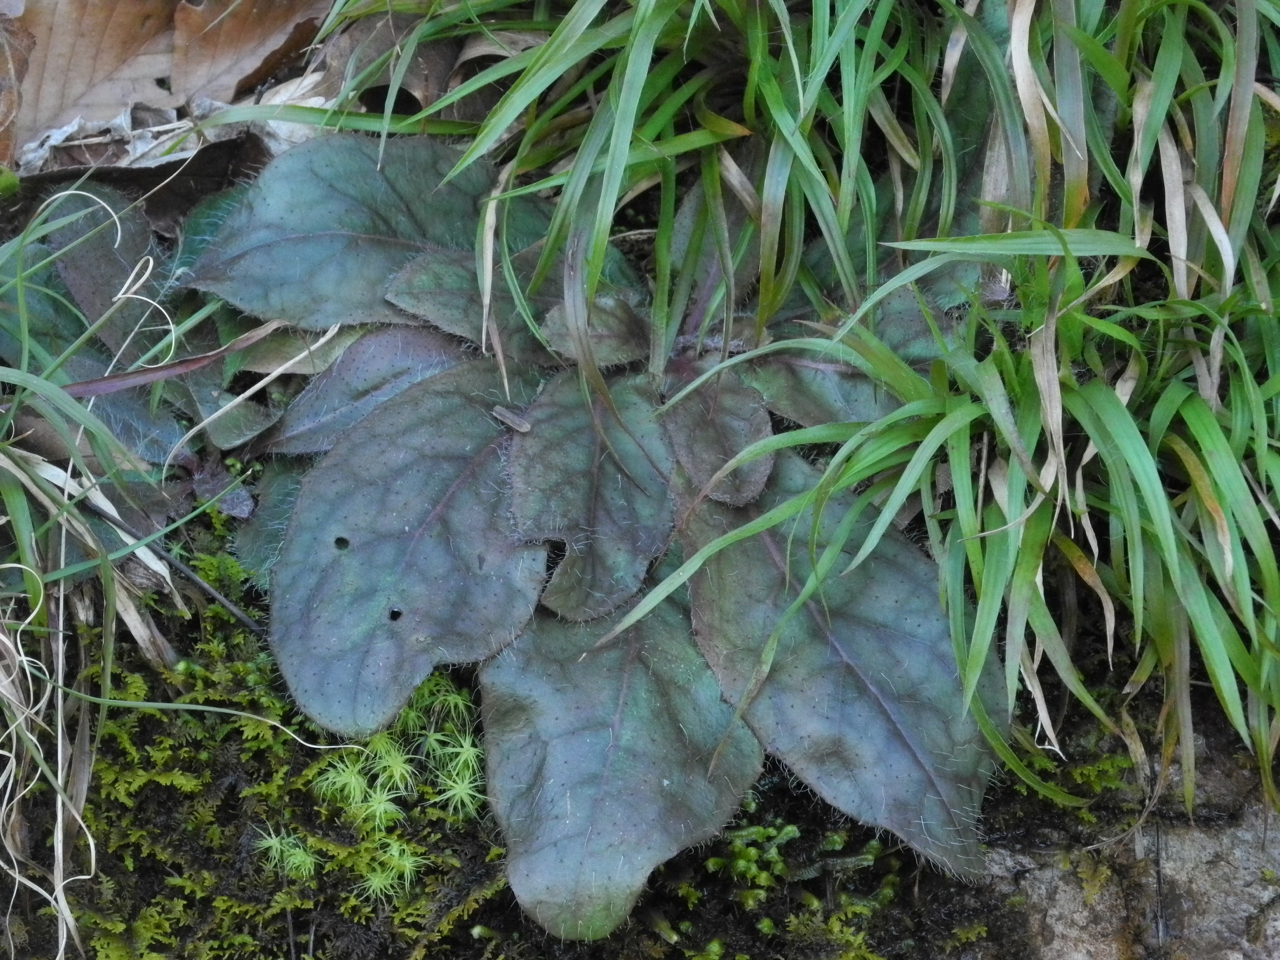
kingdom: Plantae
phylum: Tracheophyta
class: Magnoliopsida
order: Asterales
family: Asteraceae
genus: Hieracium
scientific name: Hieracium marianum
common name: Maryland hawkweed
